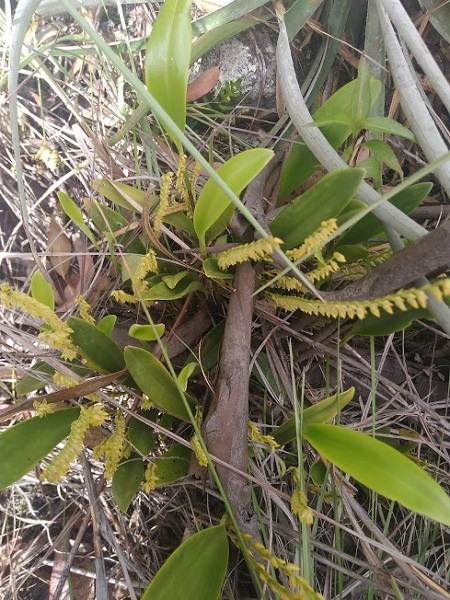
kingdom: Plantae
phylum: Tracheophyta
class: Liliopsida
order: Asparagales
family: Orchidaceae
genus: Stelis
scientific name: Stelis galeata
